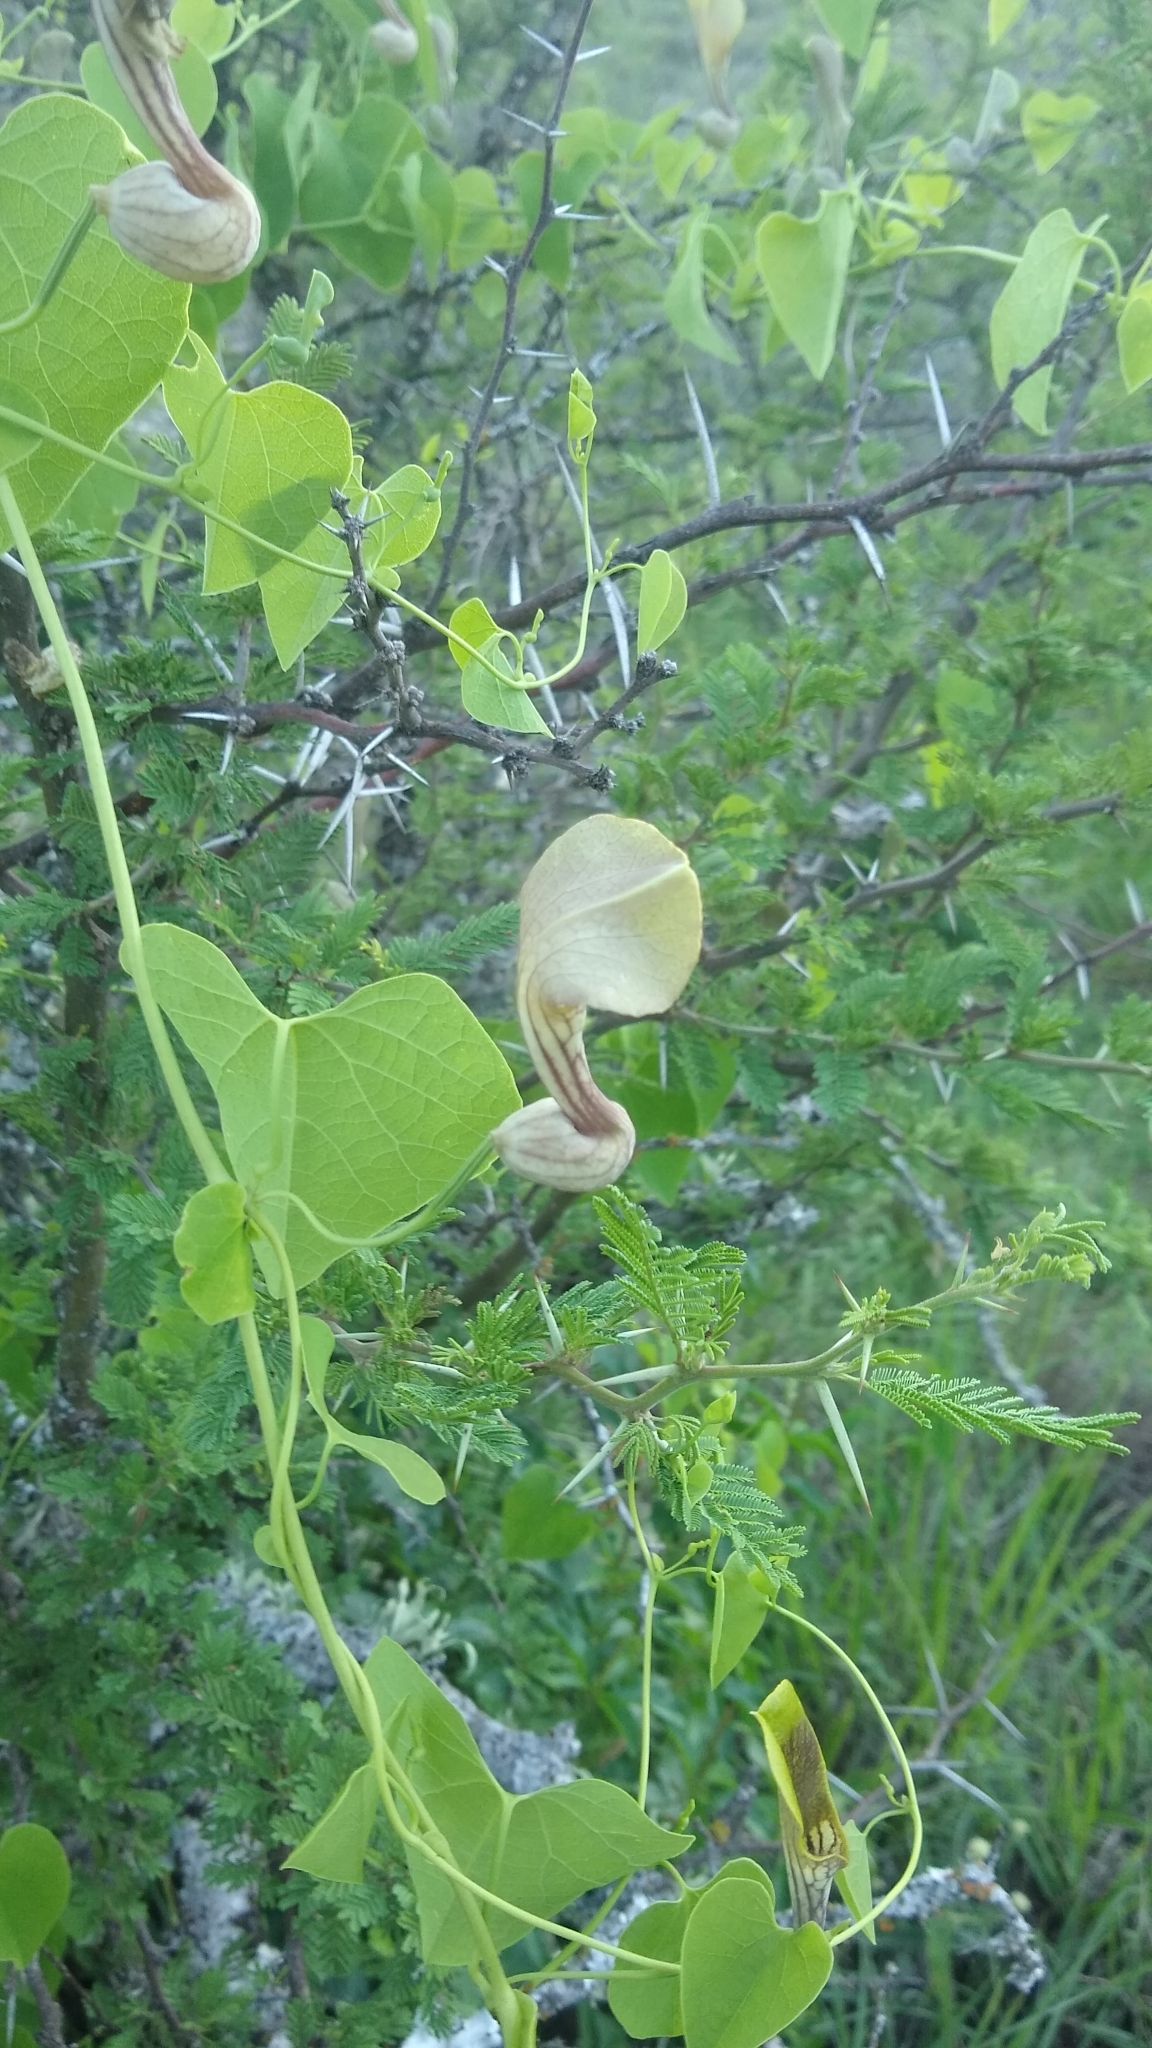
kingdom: Plantae
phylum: Tracheophyta
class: Magnoliopsida
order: Piperales
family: Aristolochiaceae
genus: Aristolochia
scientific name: Aristolochia argentina
